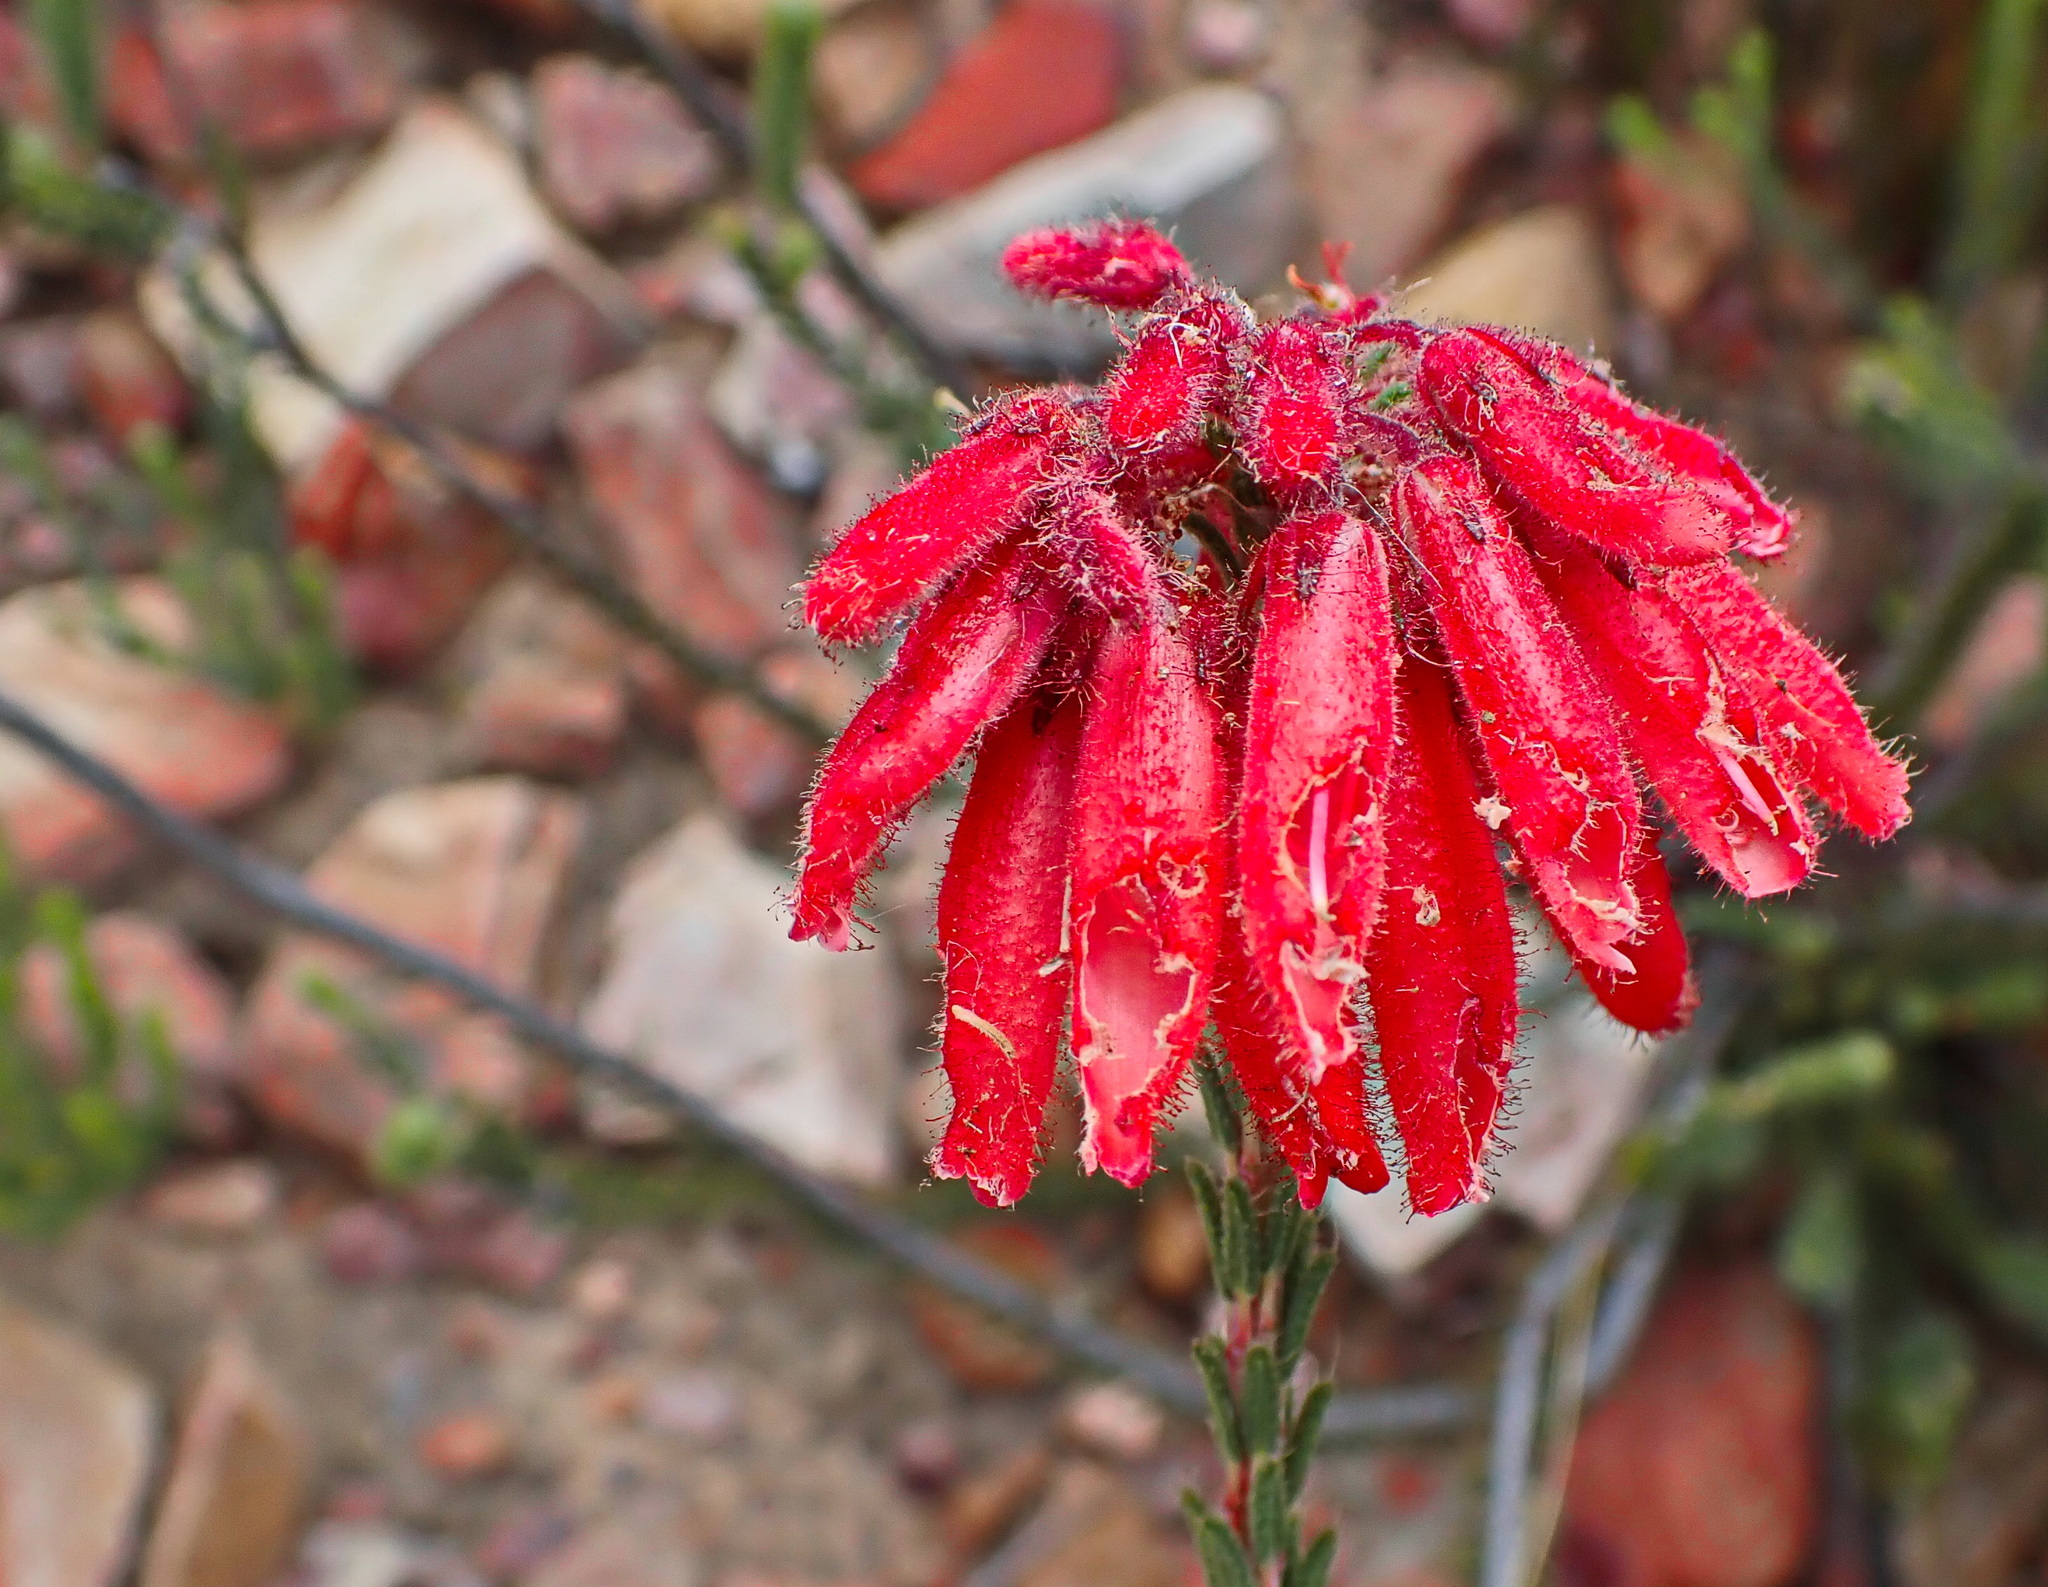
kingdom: Plantae
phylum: Tracheophyta
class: Magnoliopsida
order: Ericales
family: Ericaceae
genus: Erica
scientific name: Erica cerinthoides
